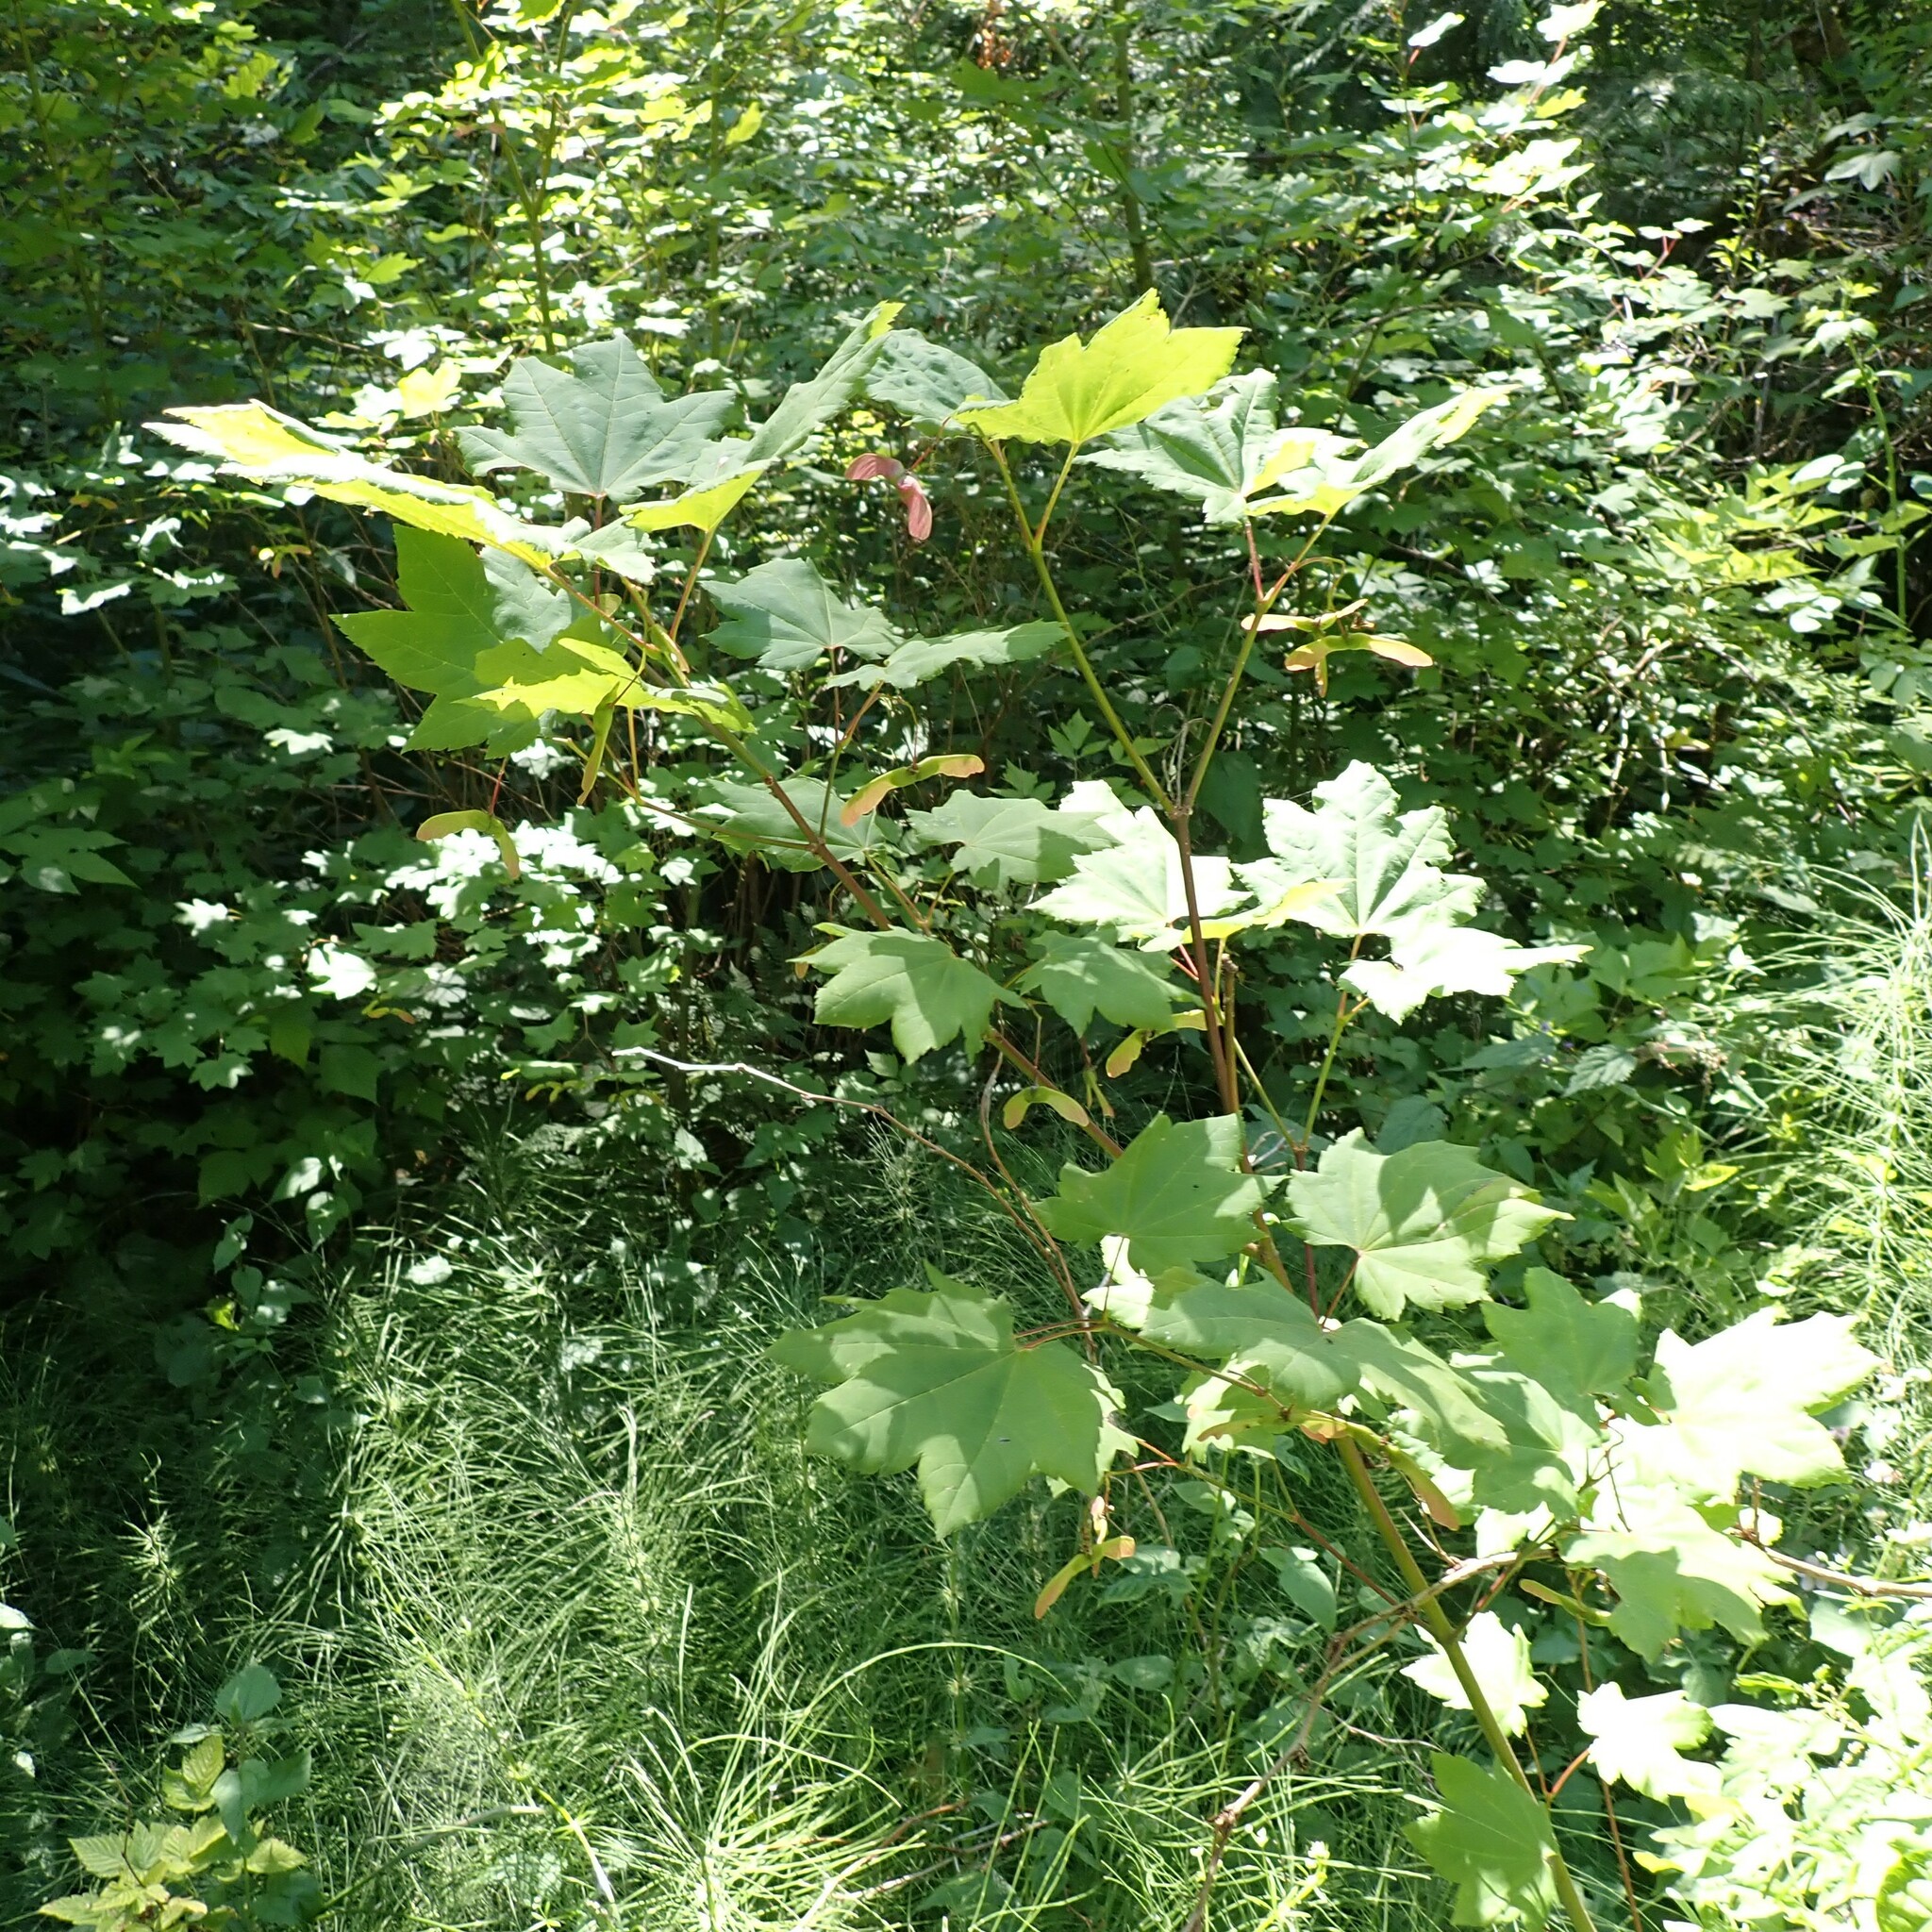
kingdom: Plantae
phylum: Tracheophyta
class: Magnoliopsida
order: Sapindales
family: Sapindaceae
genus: Acer
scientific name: Acer circinatum
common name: Vine maple
